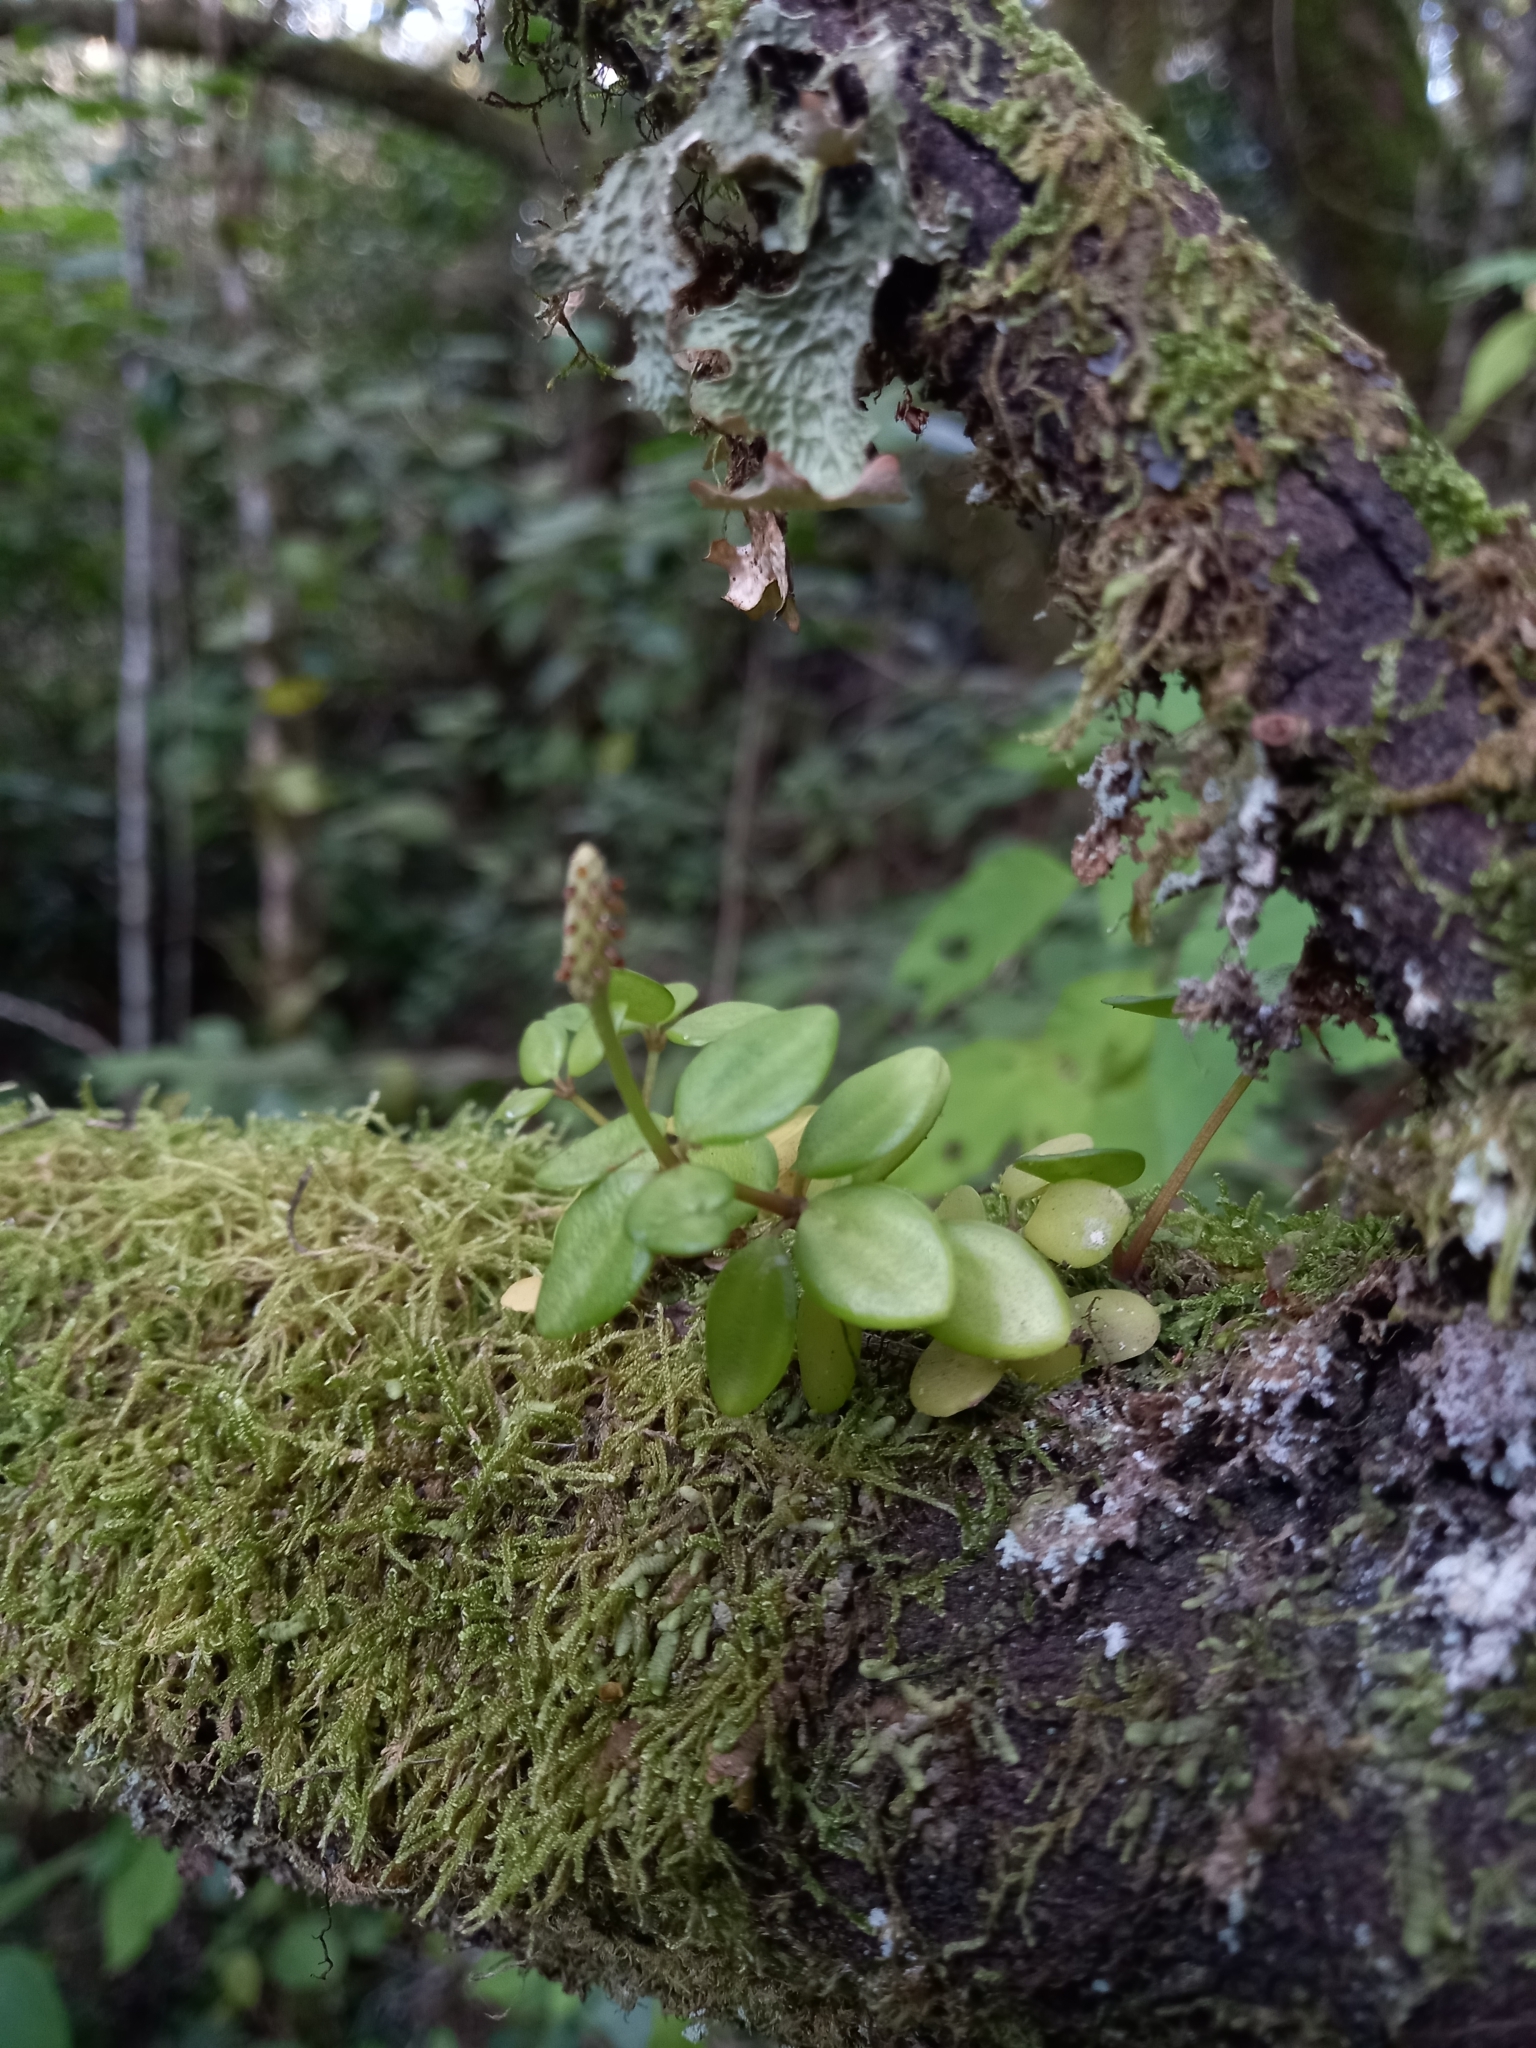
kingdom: Plantae
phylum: Tracheophyta
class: Magnoliopsida
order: Piperales
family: Piperaceae
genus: Peperomia
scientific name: Peperomia tetraphylla
